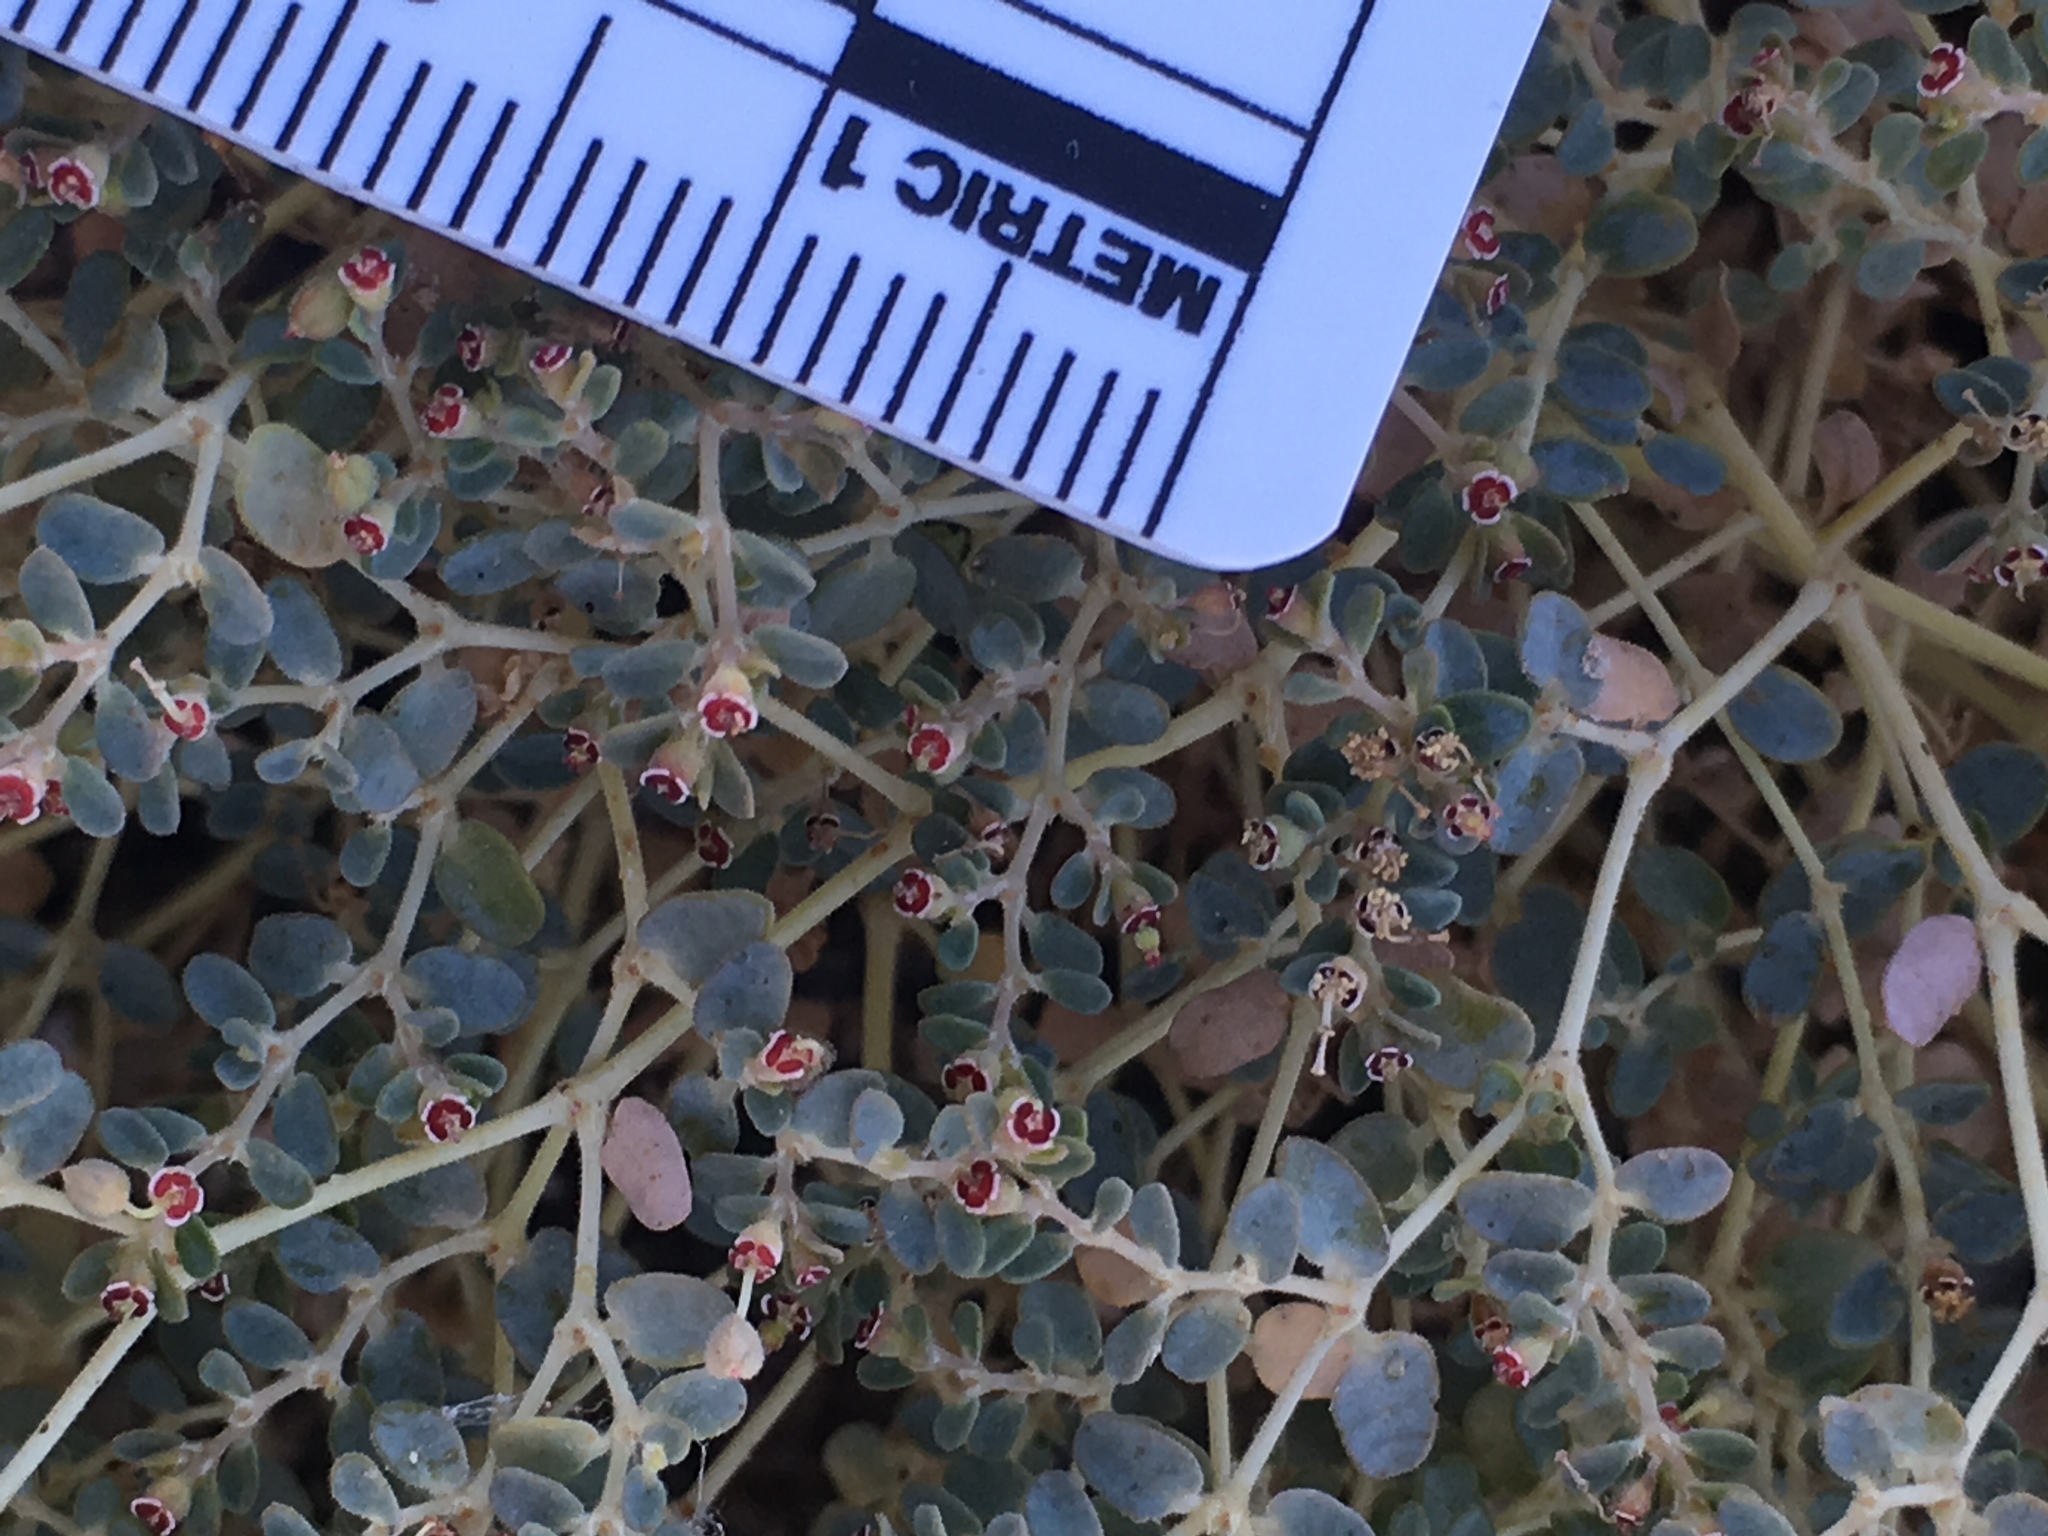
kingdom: Plantae
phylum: Tracheophyta
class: Magnoliopsida
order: Malpighiales
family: Euphorbiaceae
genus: Euphorbia
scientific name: Euphorbia polycarpa
